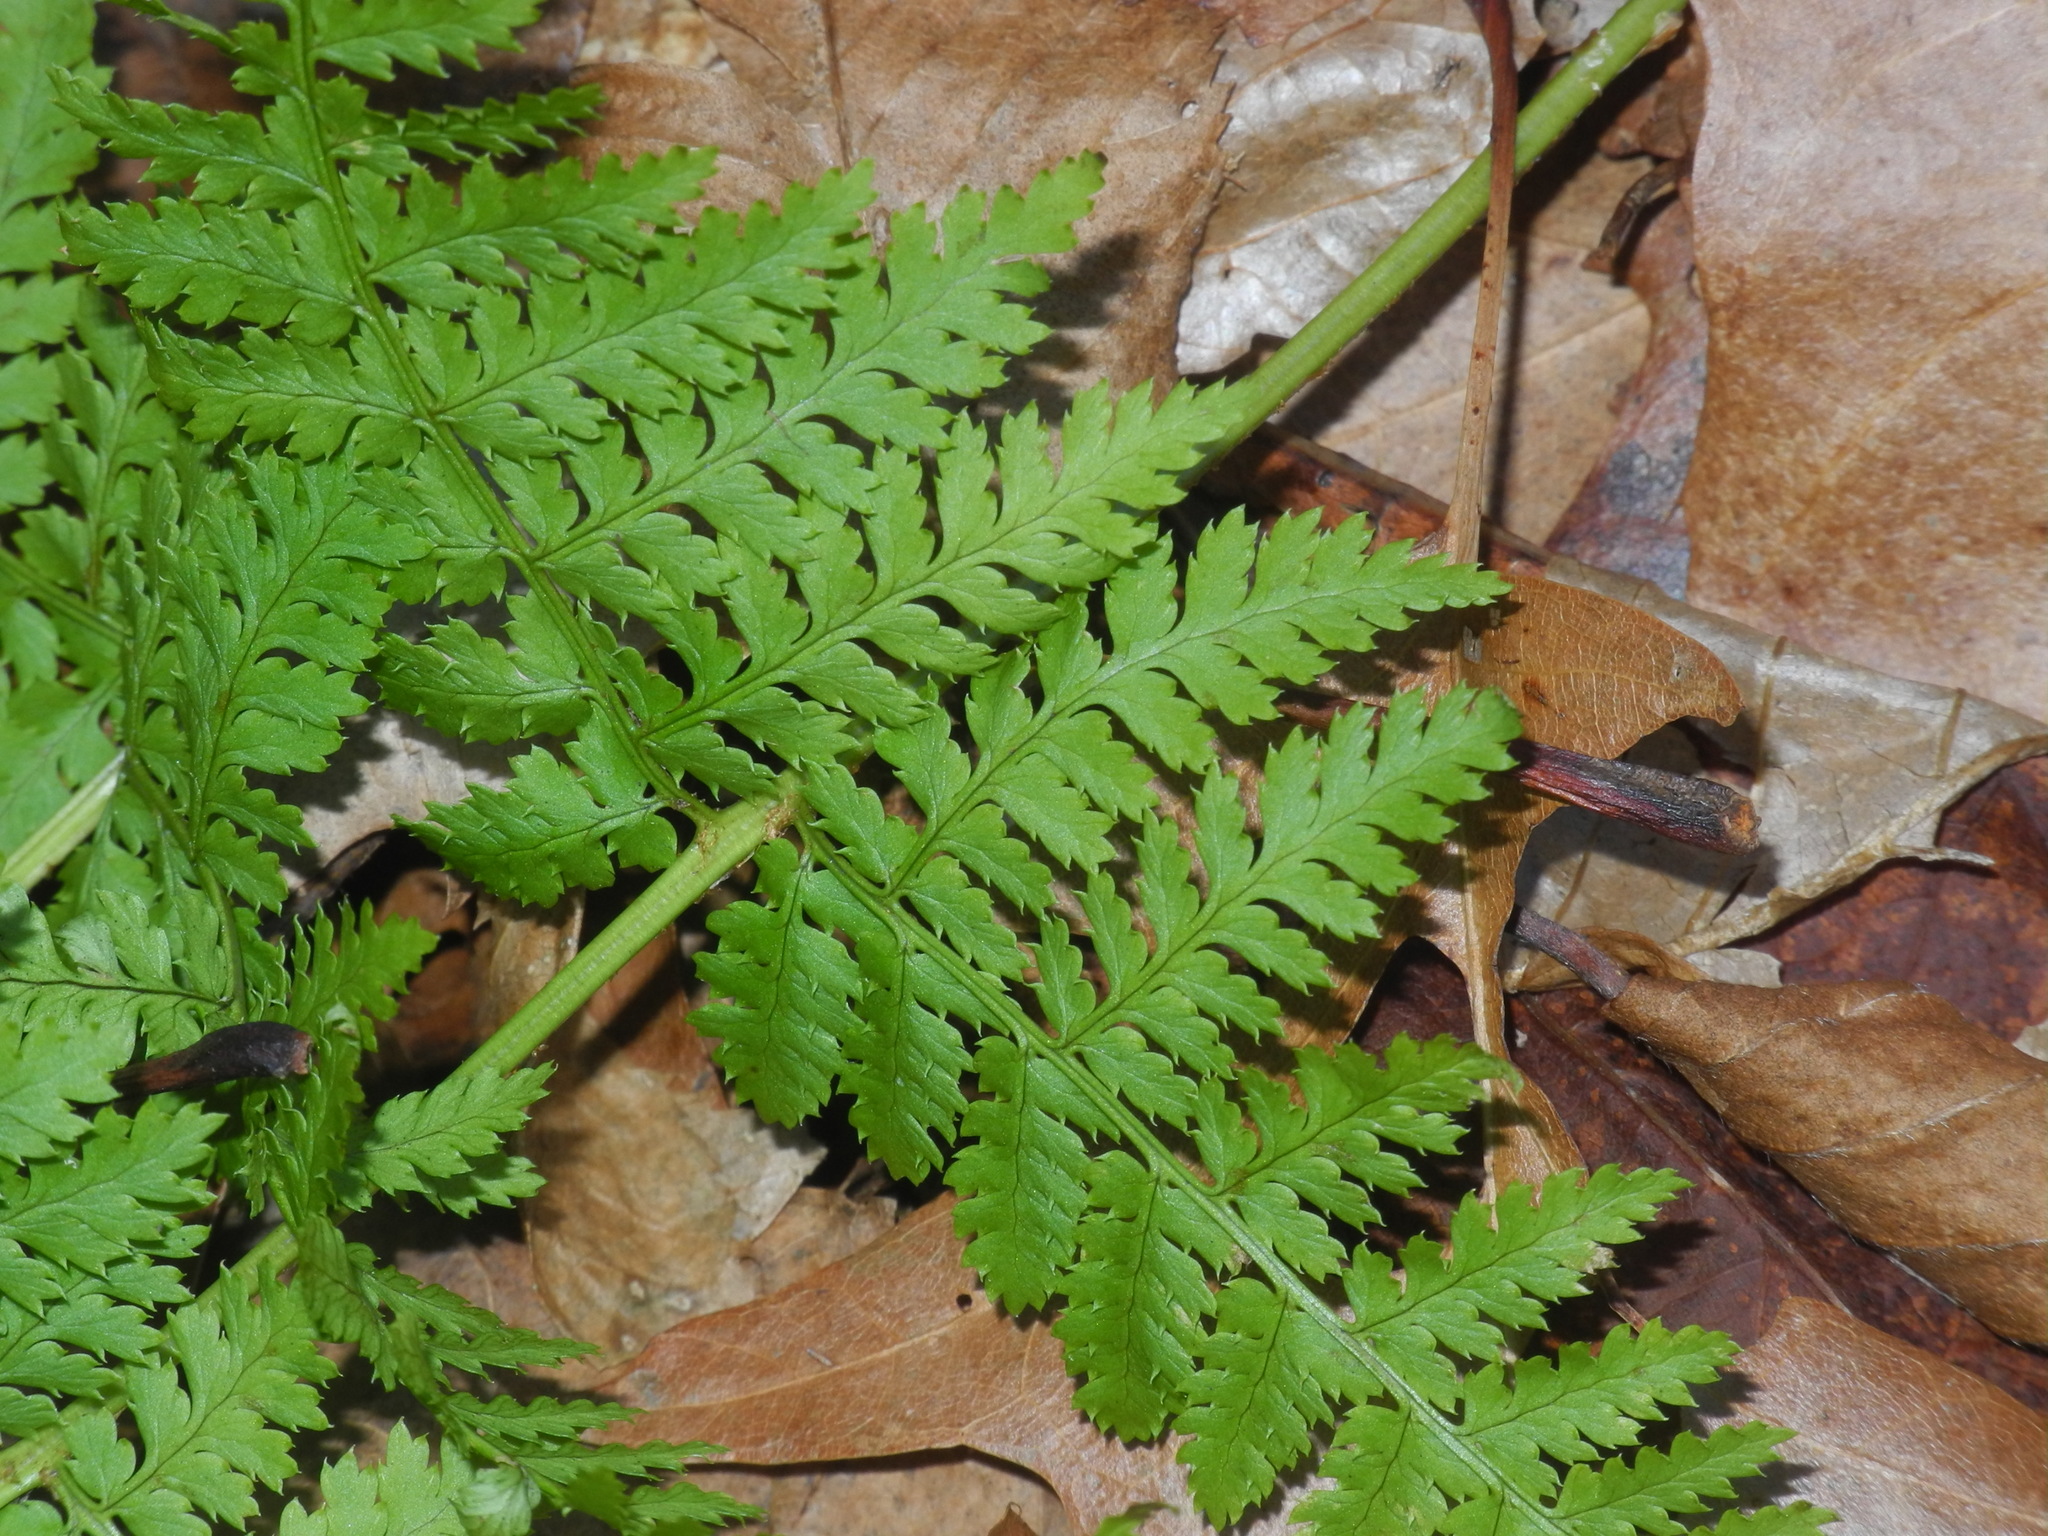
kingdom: Plantae
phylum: Tracheophyta
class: Polypodiopsida
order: Polypodiales
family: Dryopteridaceae
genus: Dryopteris
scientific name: Dryopteris intermedia
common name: Evergreen wood fern
